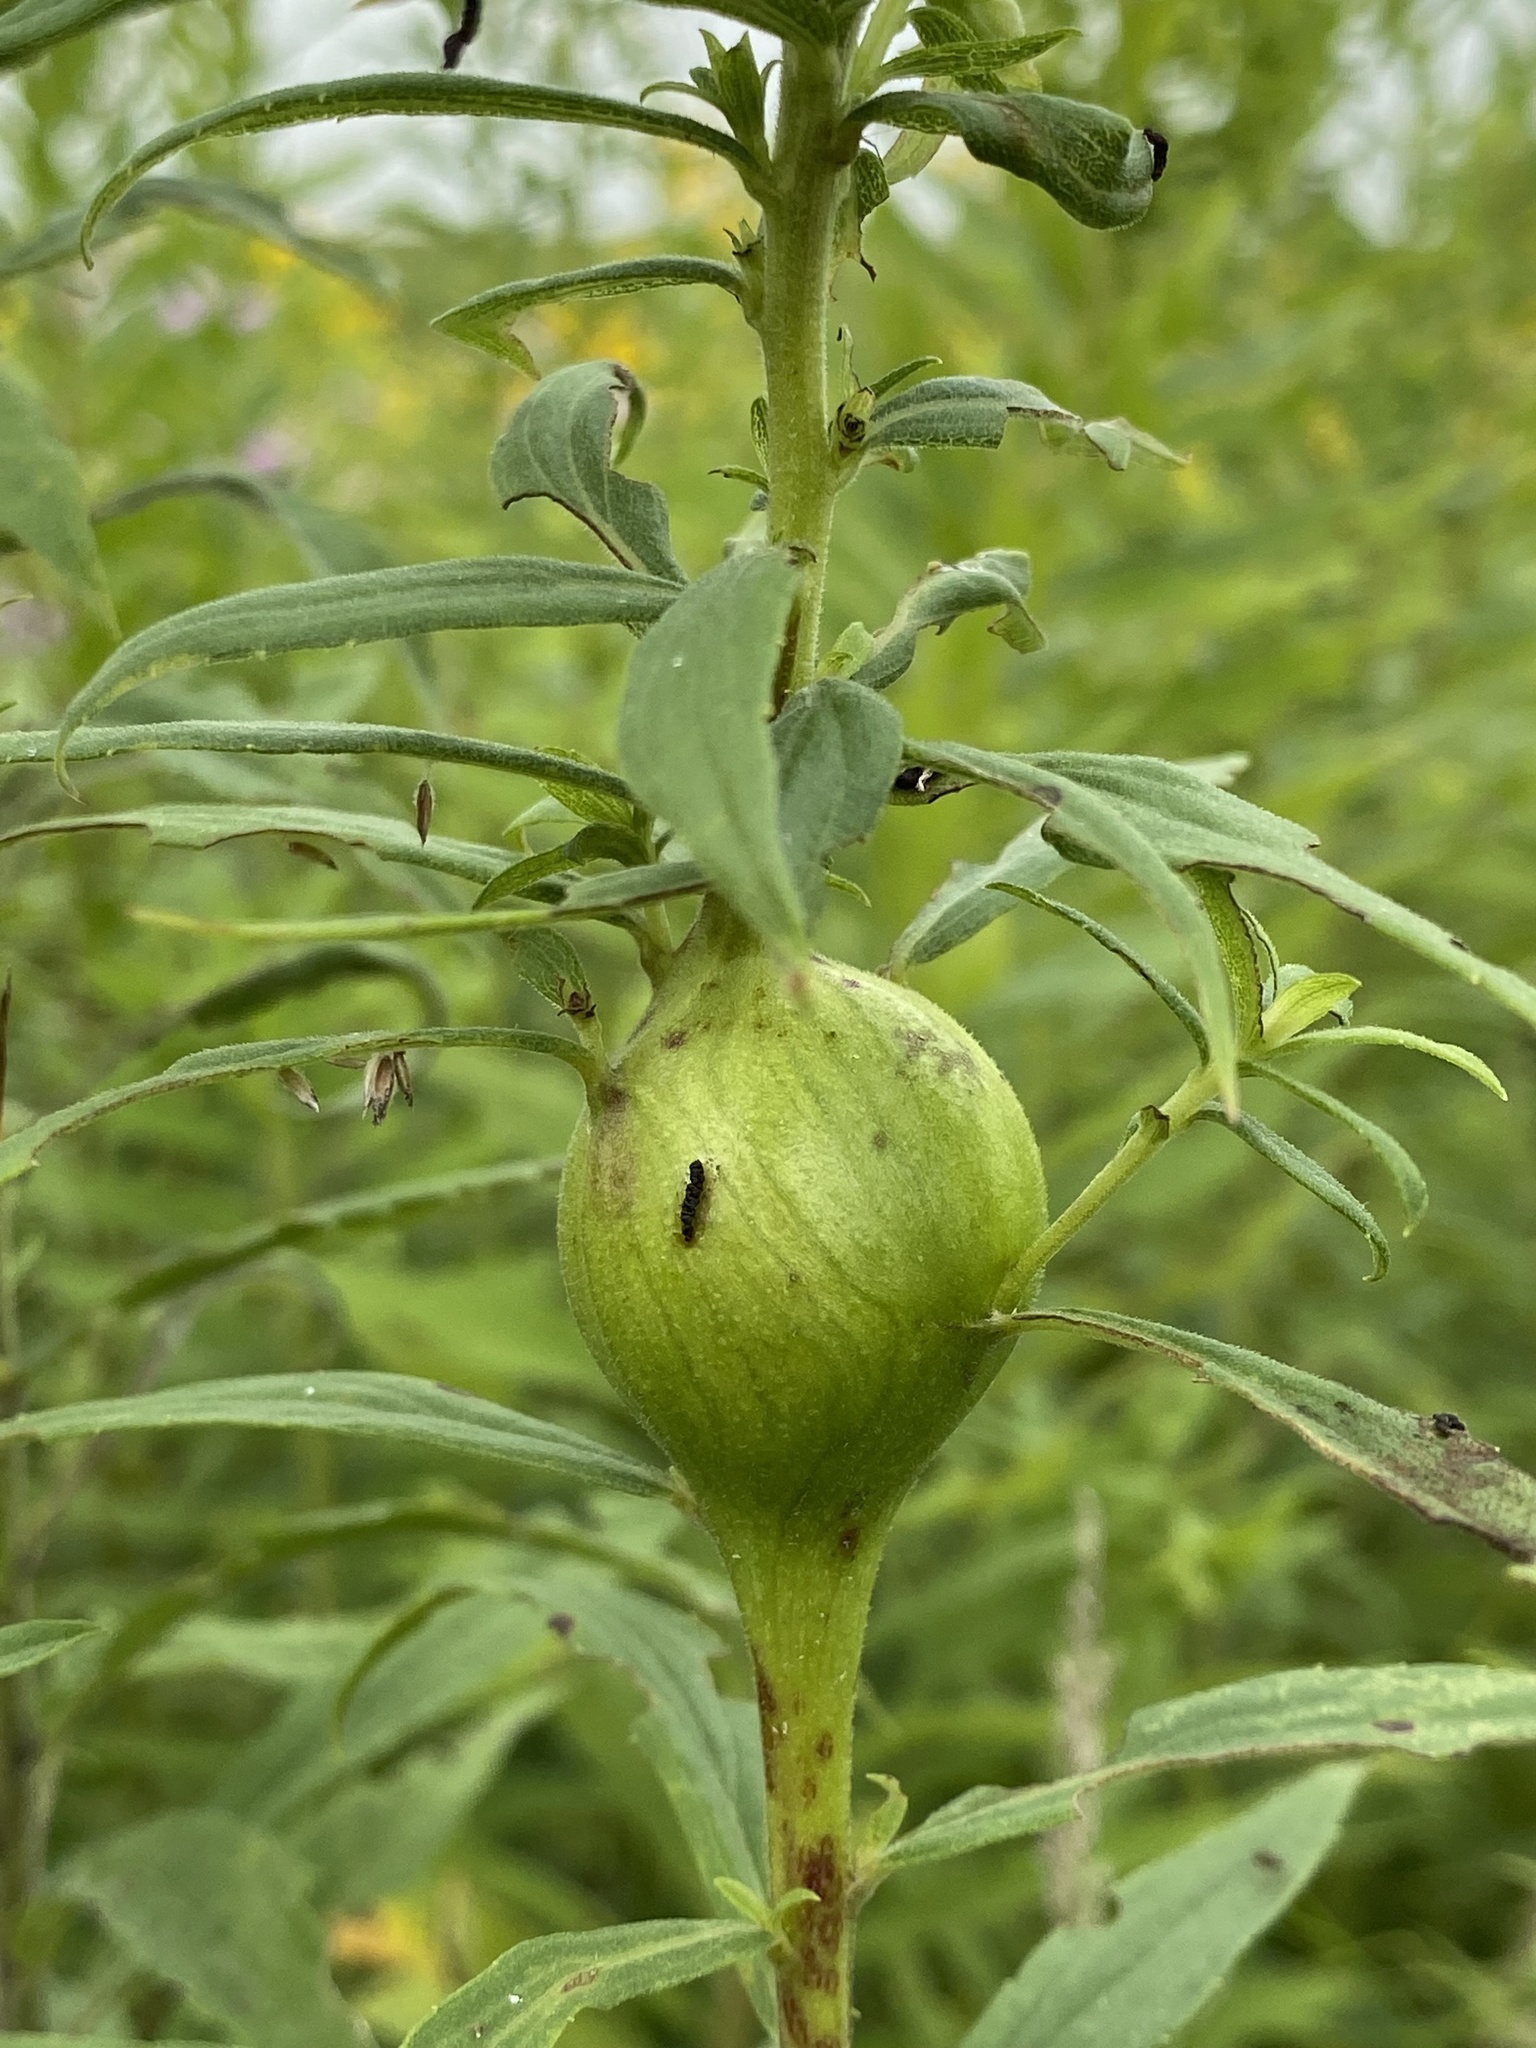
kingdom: Animalia
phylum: Arthropoda
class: Insecta
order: Diptera
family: Tephritidae
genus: Eurosta
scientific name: Eurosta solidaginis
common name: Goldenrod gall fly
